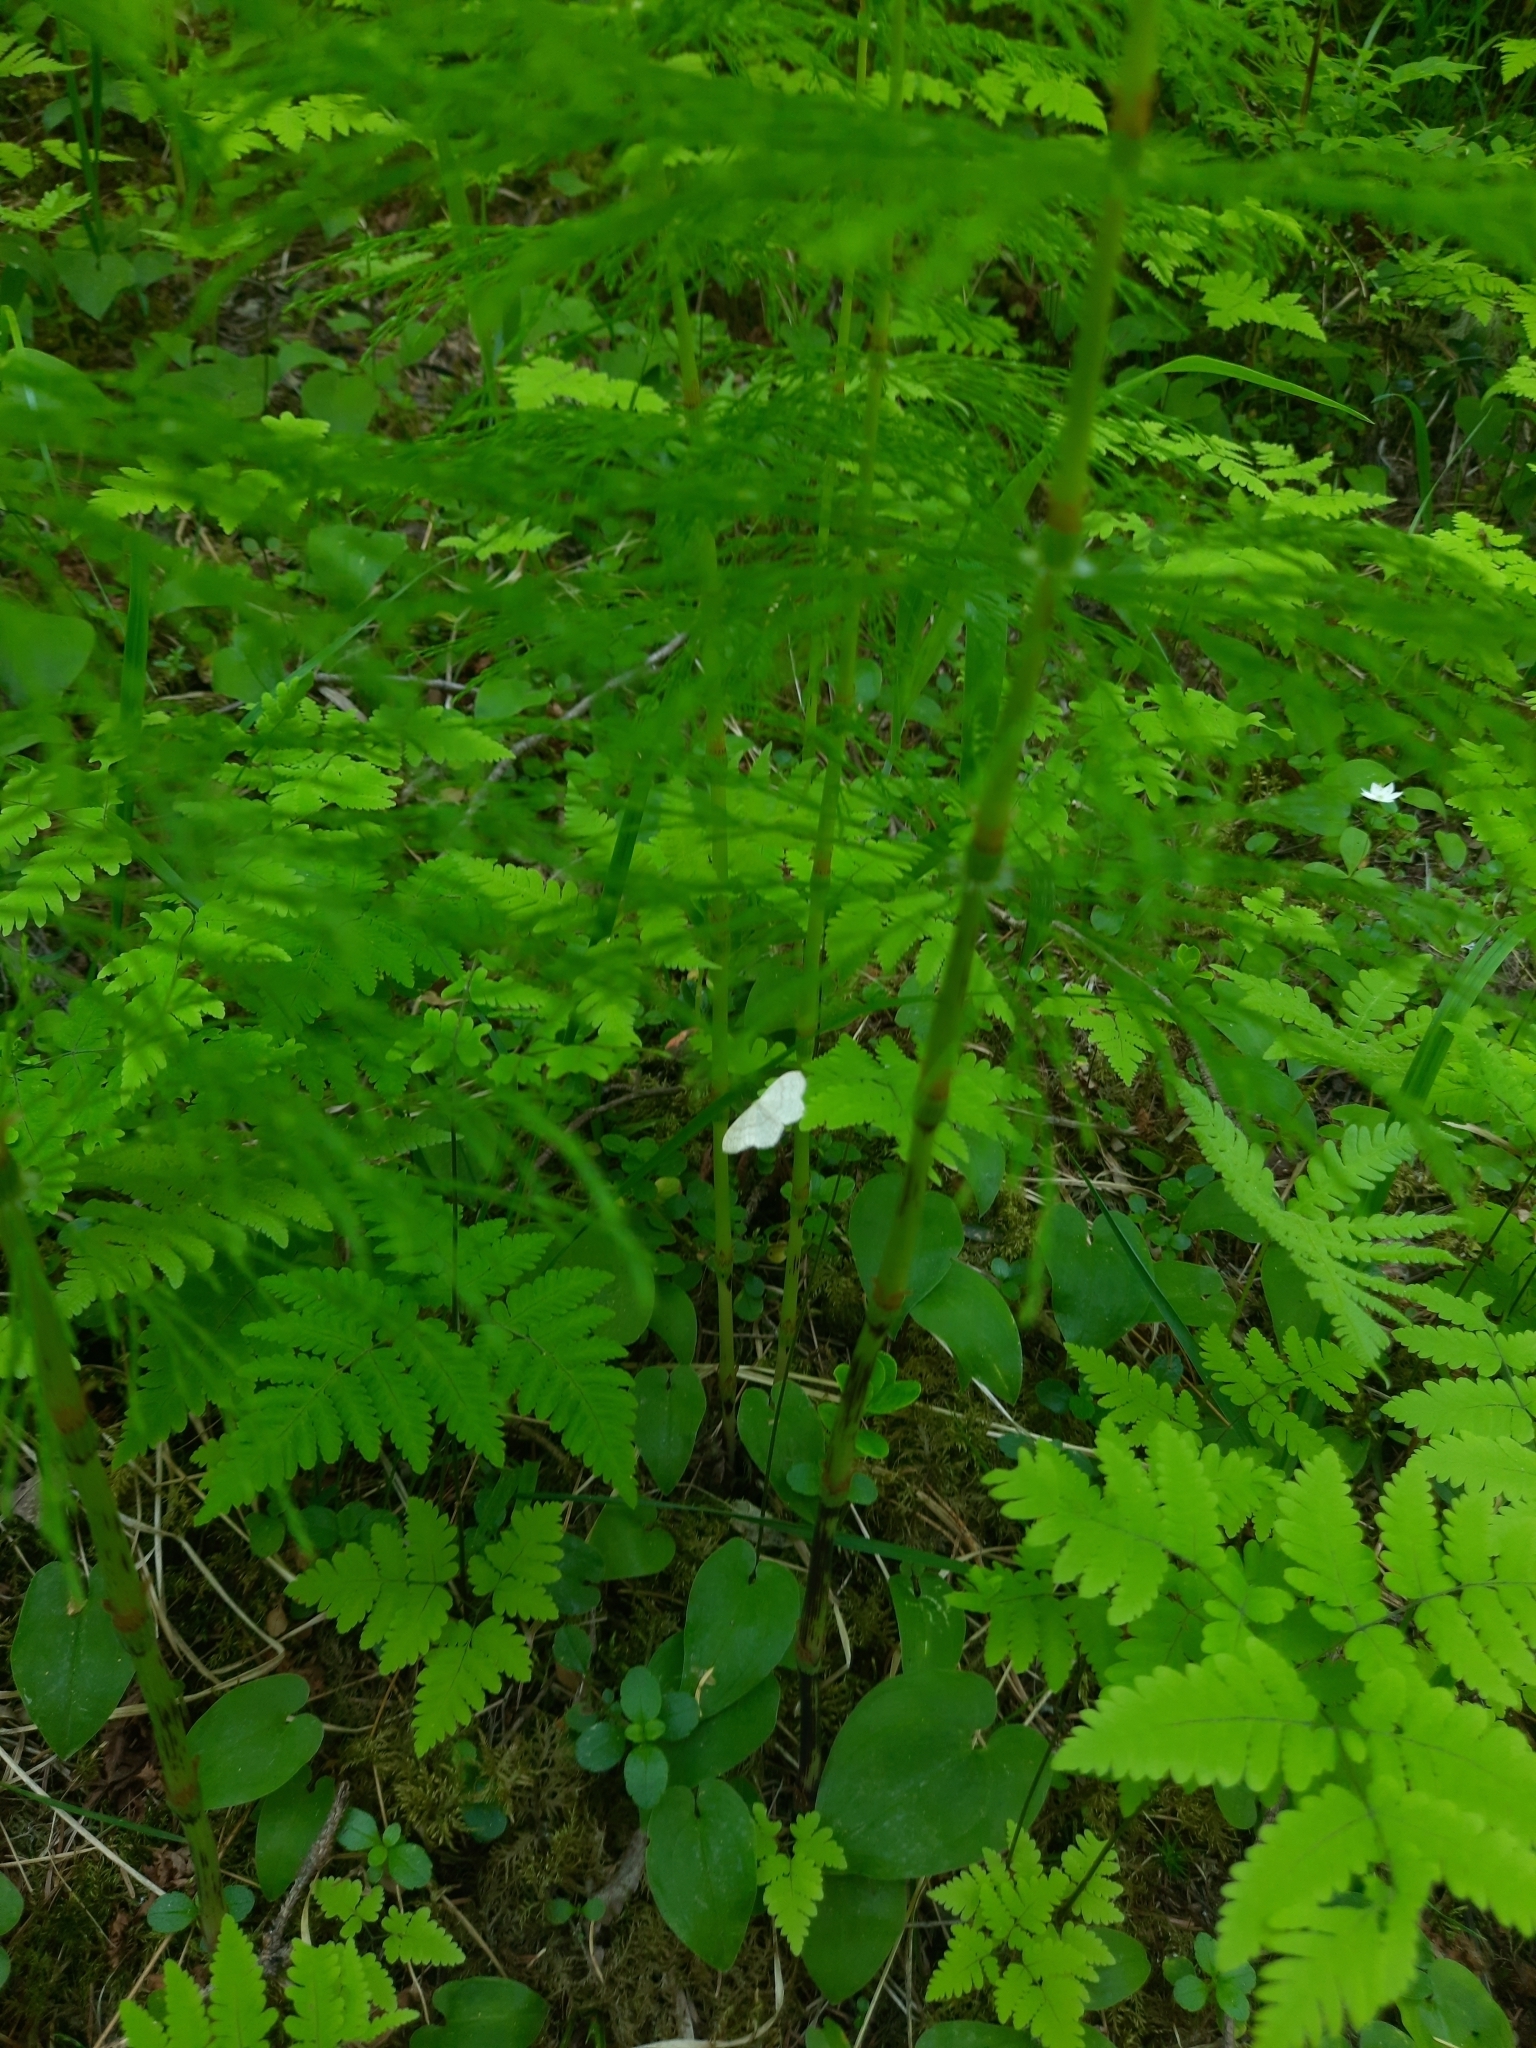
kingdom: Animalia
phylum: Arthropoda
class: Insecta
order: Lepidoptera
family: Geometridae
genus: Scopula
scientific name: Scopula floslactata
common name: Cream wave
